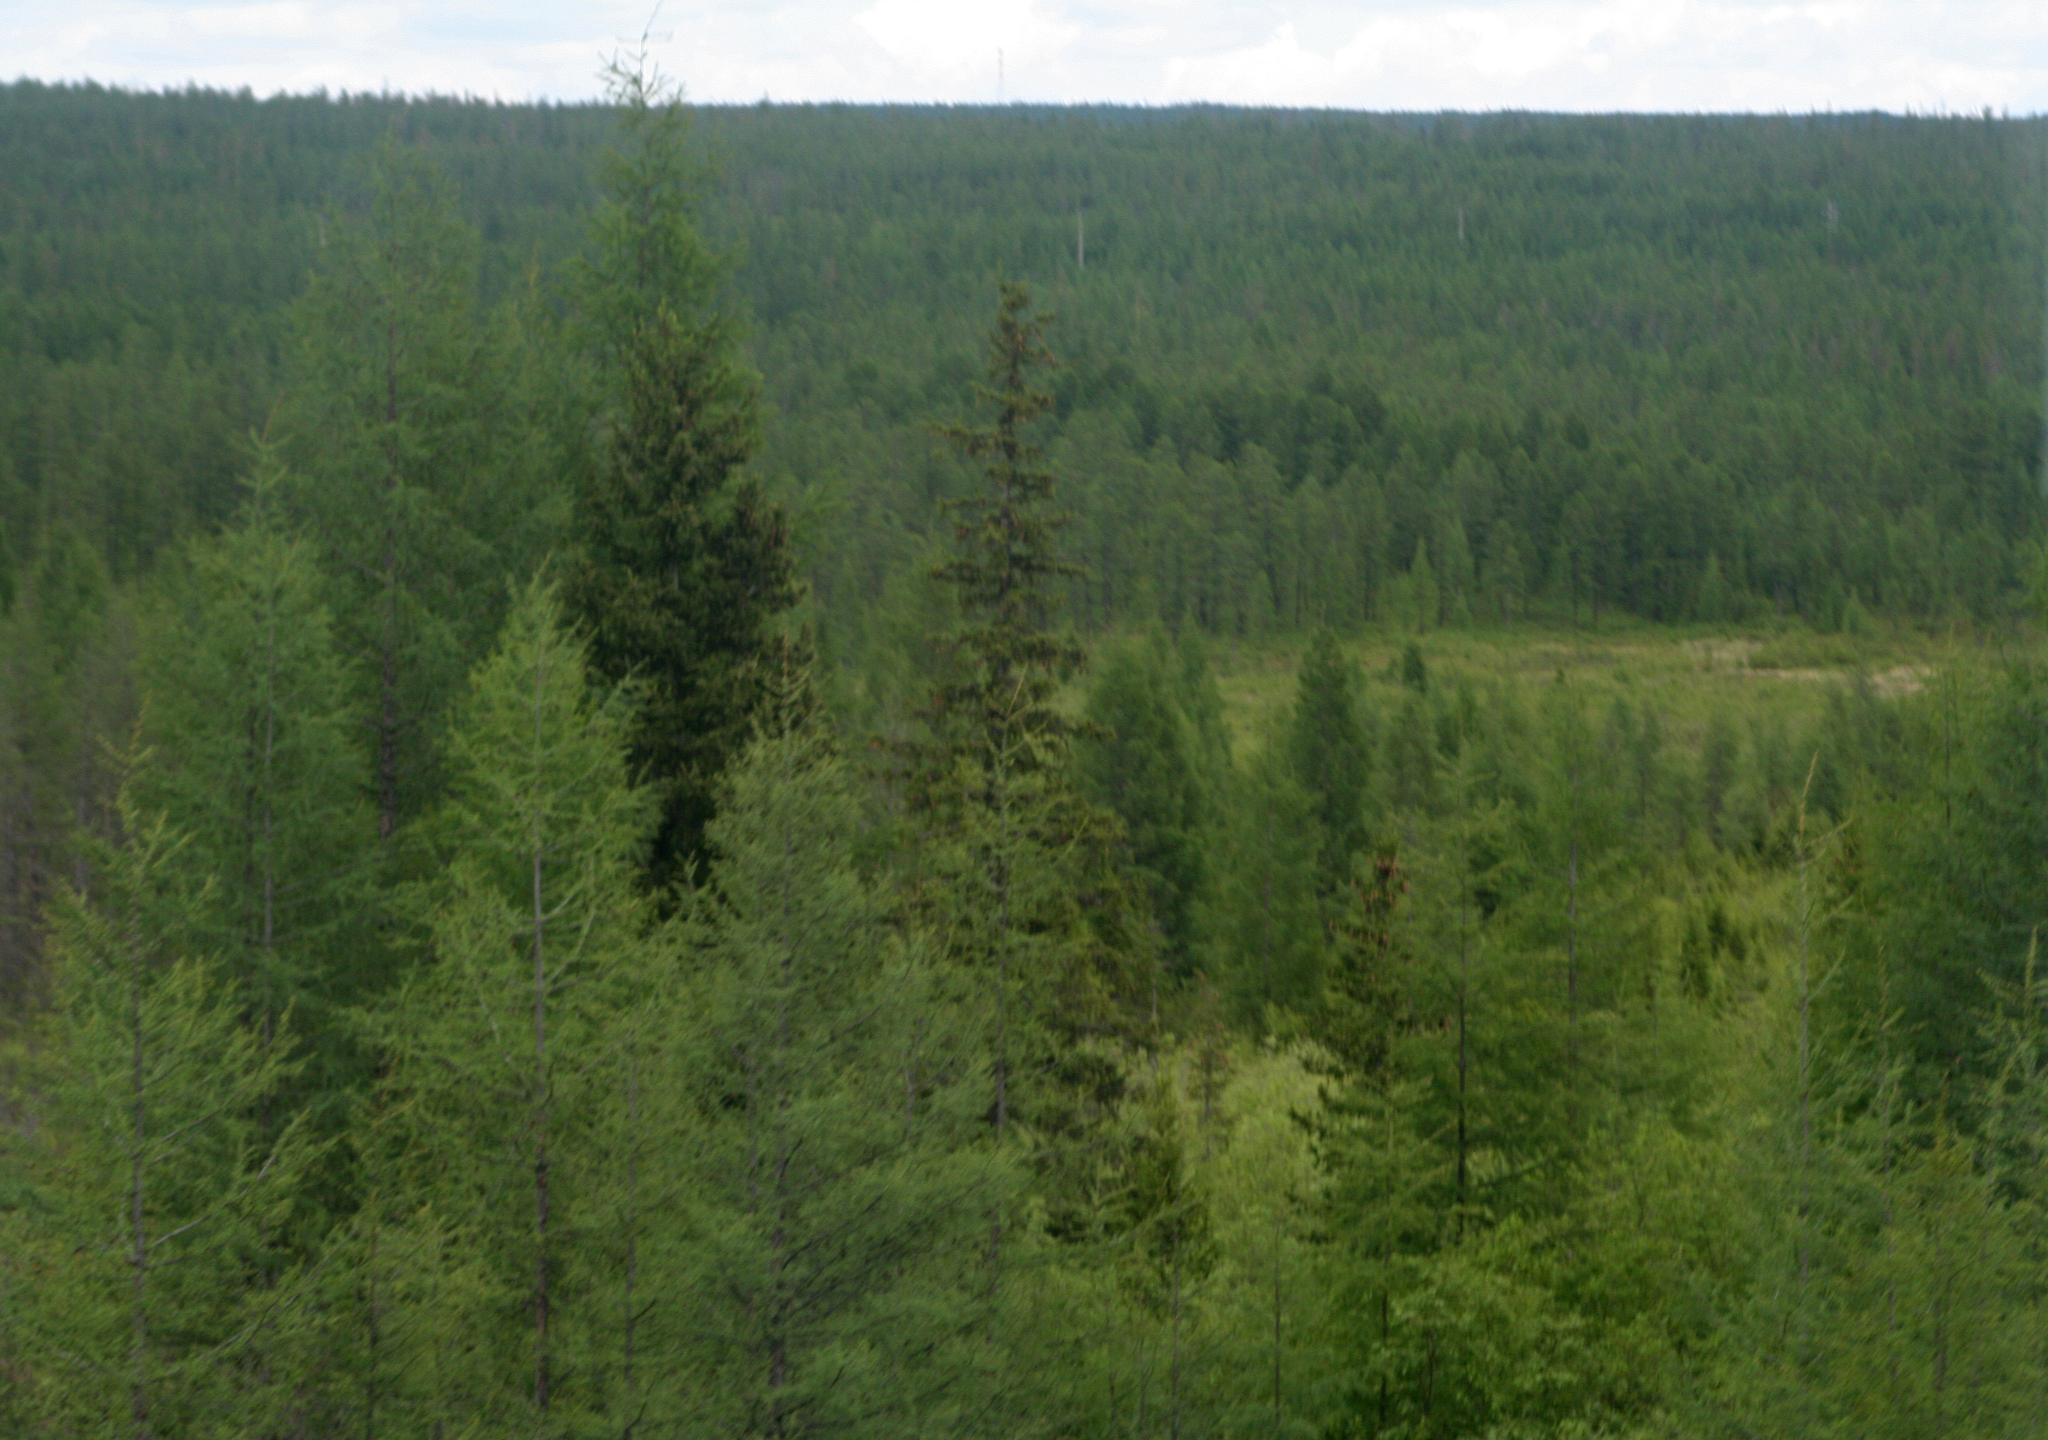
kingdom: Plantae
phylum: Tracheophyta
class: Pinopsida
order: Pinales
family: Pinaceae
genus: Picea
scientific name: Picea obovata
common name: Siberian spruce
